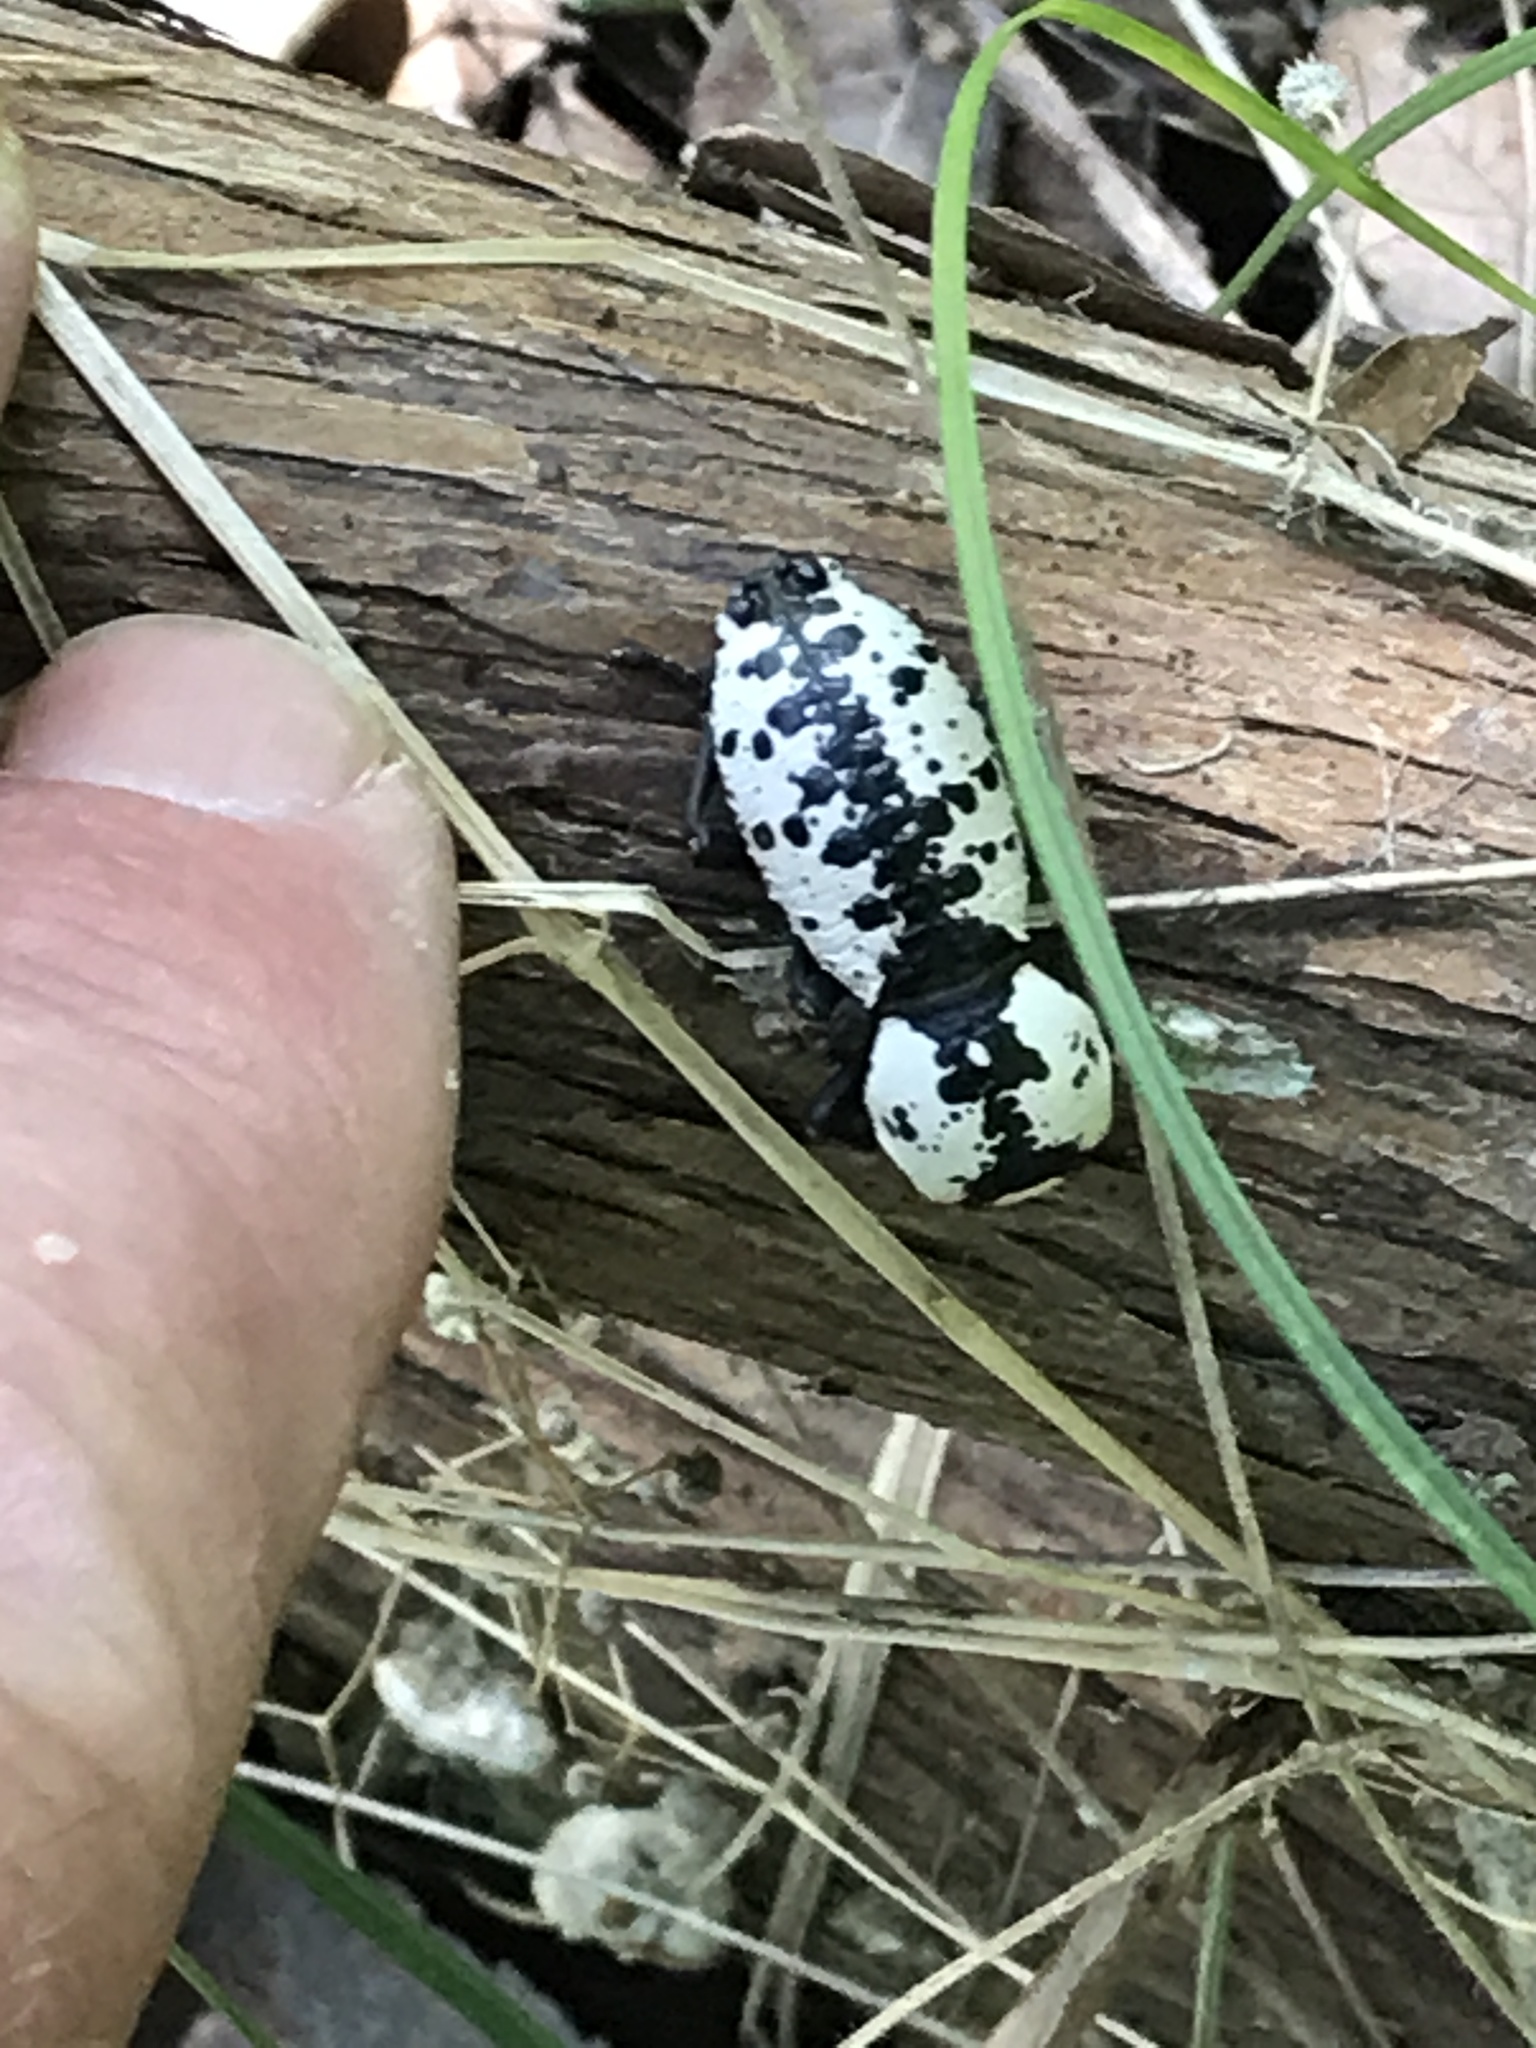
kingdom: Animalia
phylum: Arthropoda
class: Insecta
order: Coleoptera
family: Zopheridae
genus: Zopherus
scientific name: Zopherus nodulosus
